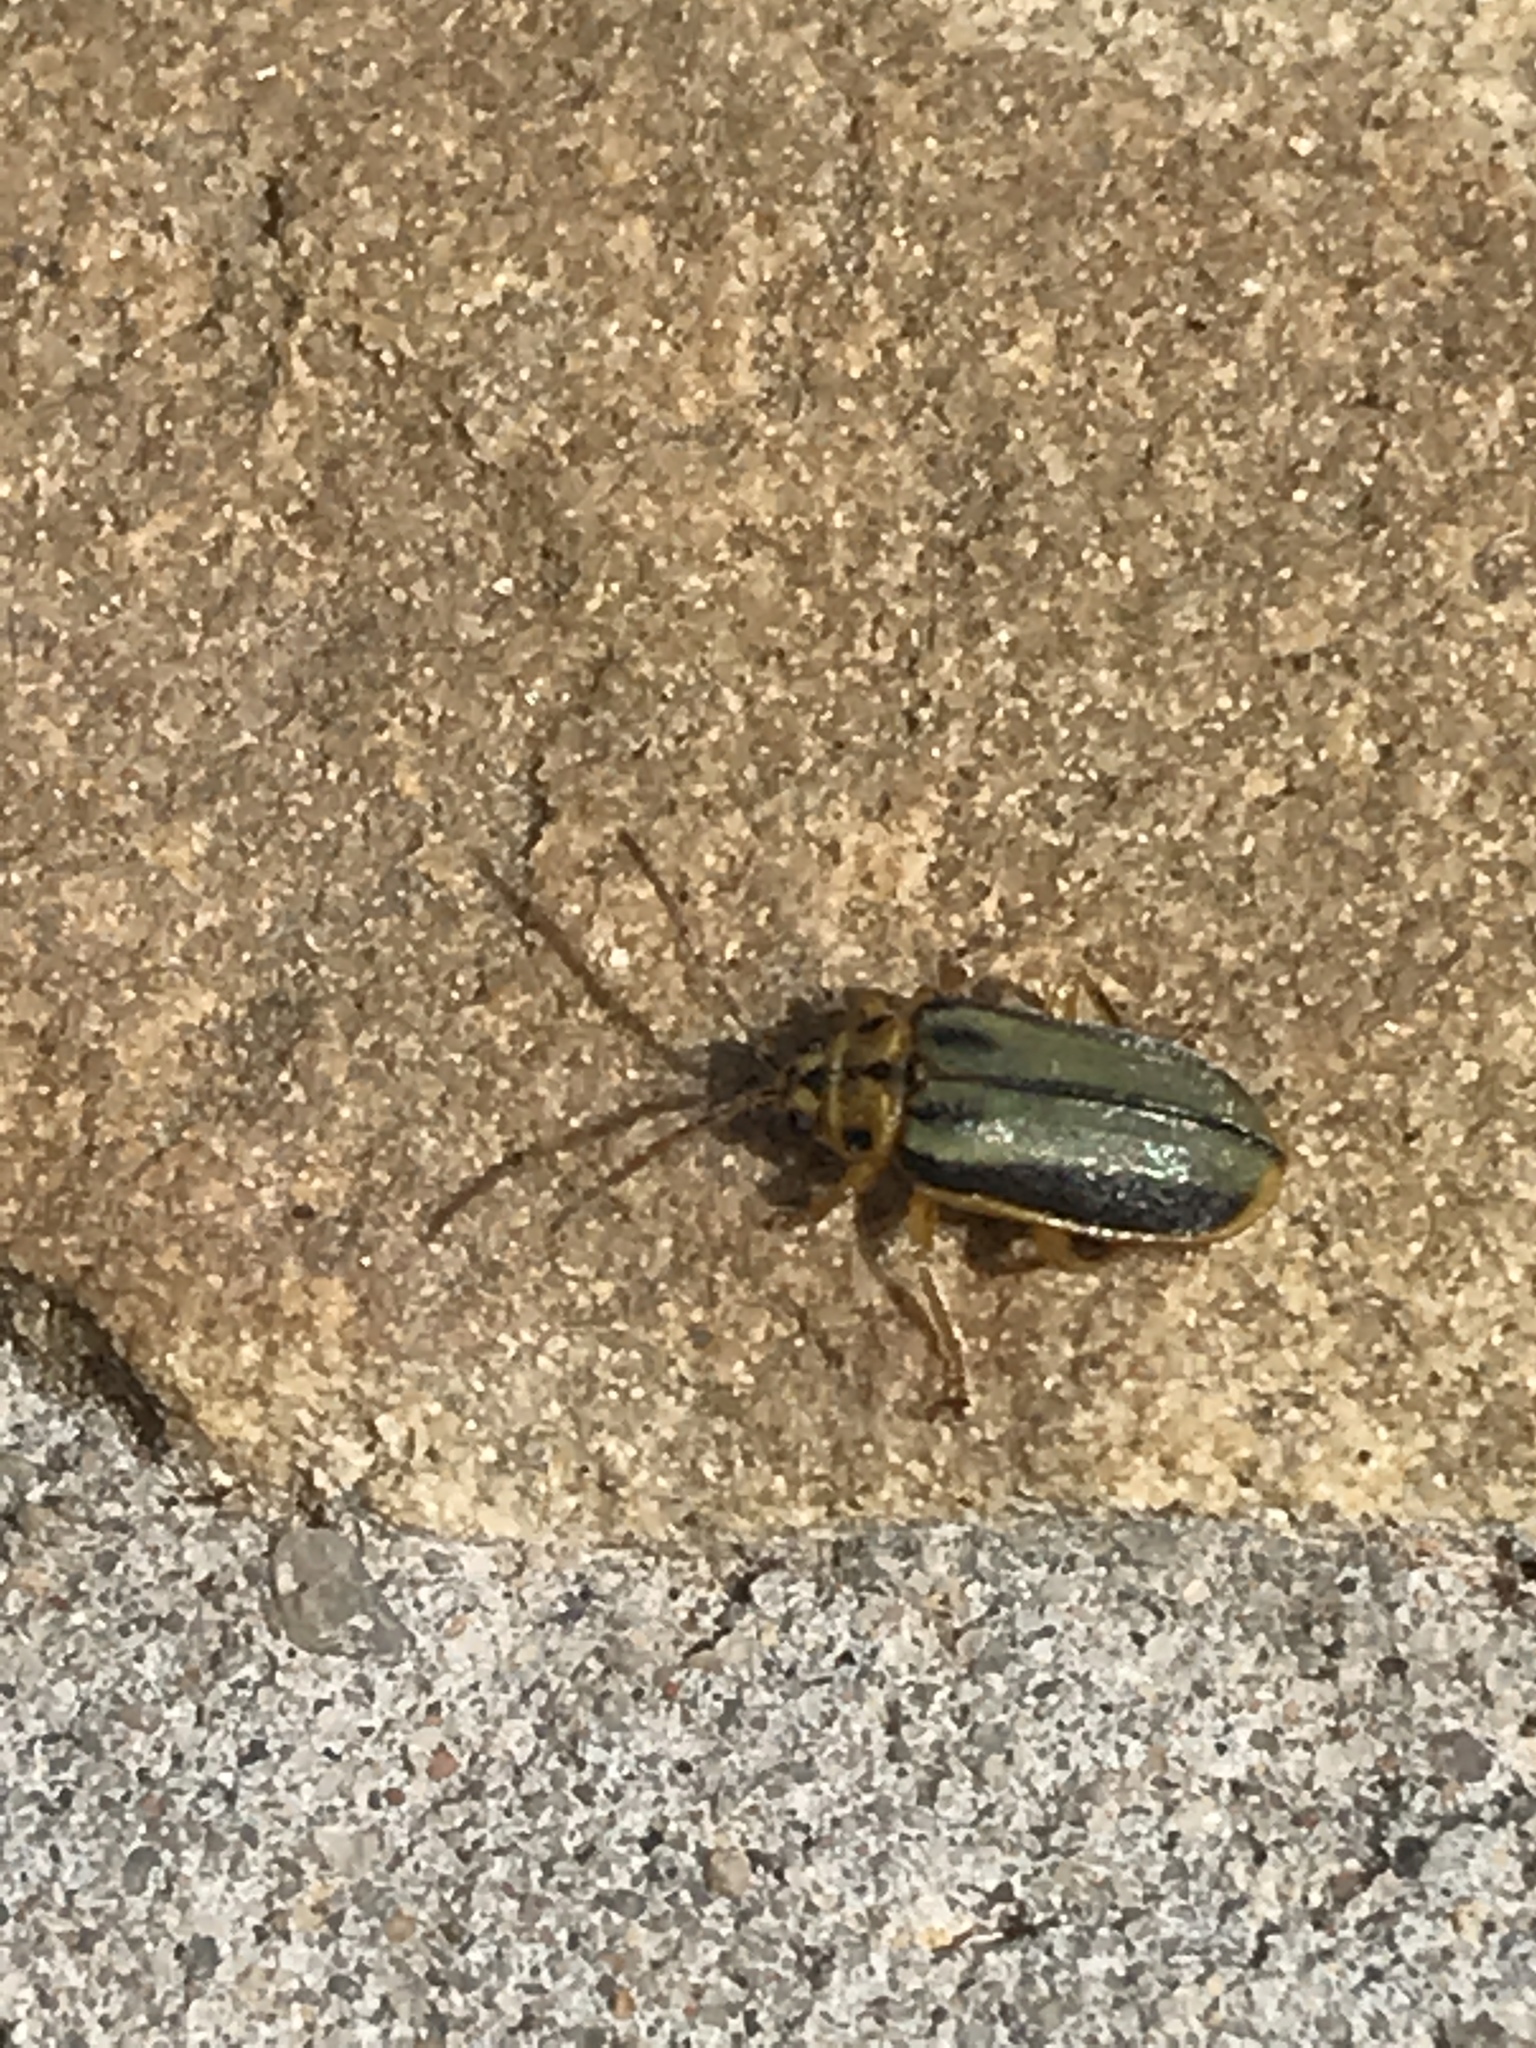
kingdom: Animalia
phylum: Arthropoda
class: Insecta
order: Coleoptera
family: Chrysomelidae
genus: Xanthogaleruca
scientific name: Xanthogaleruca luteola
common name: Elm leaf beetle
